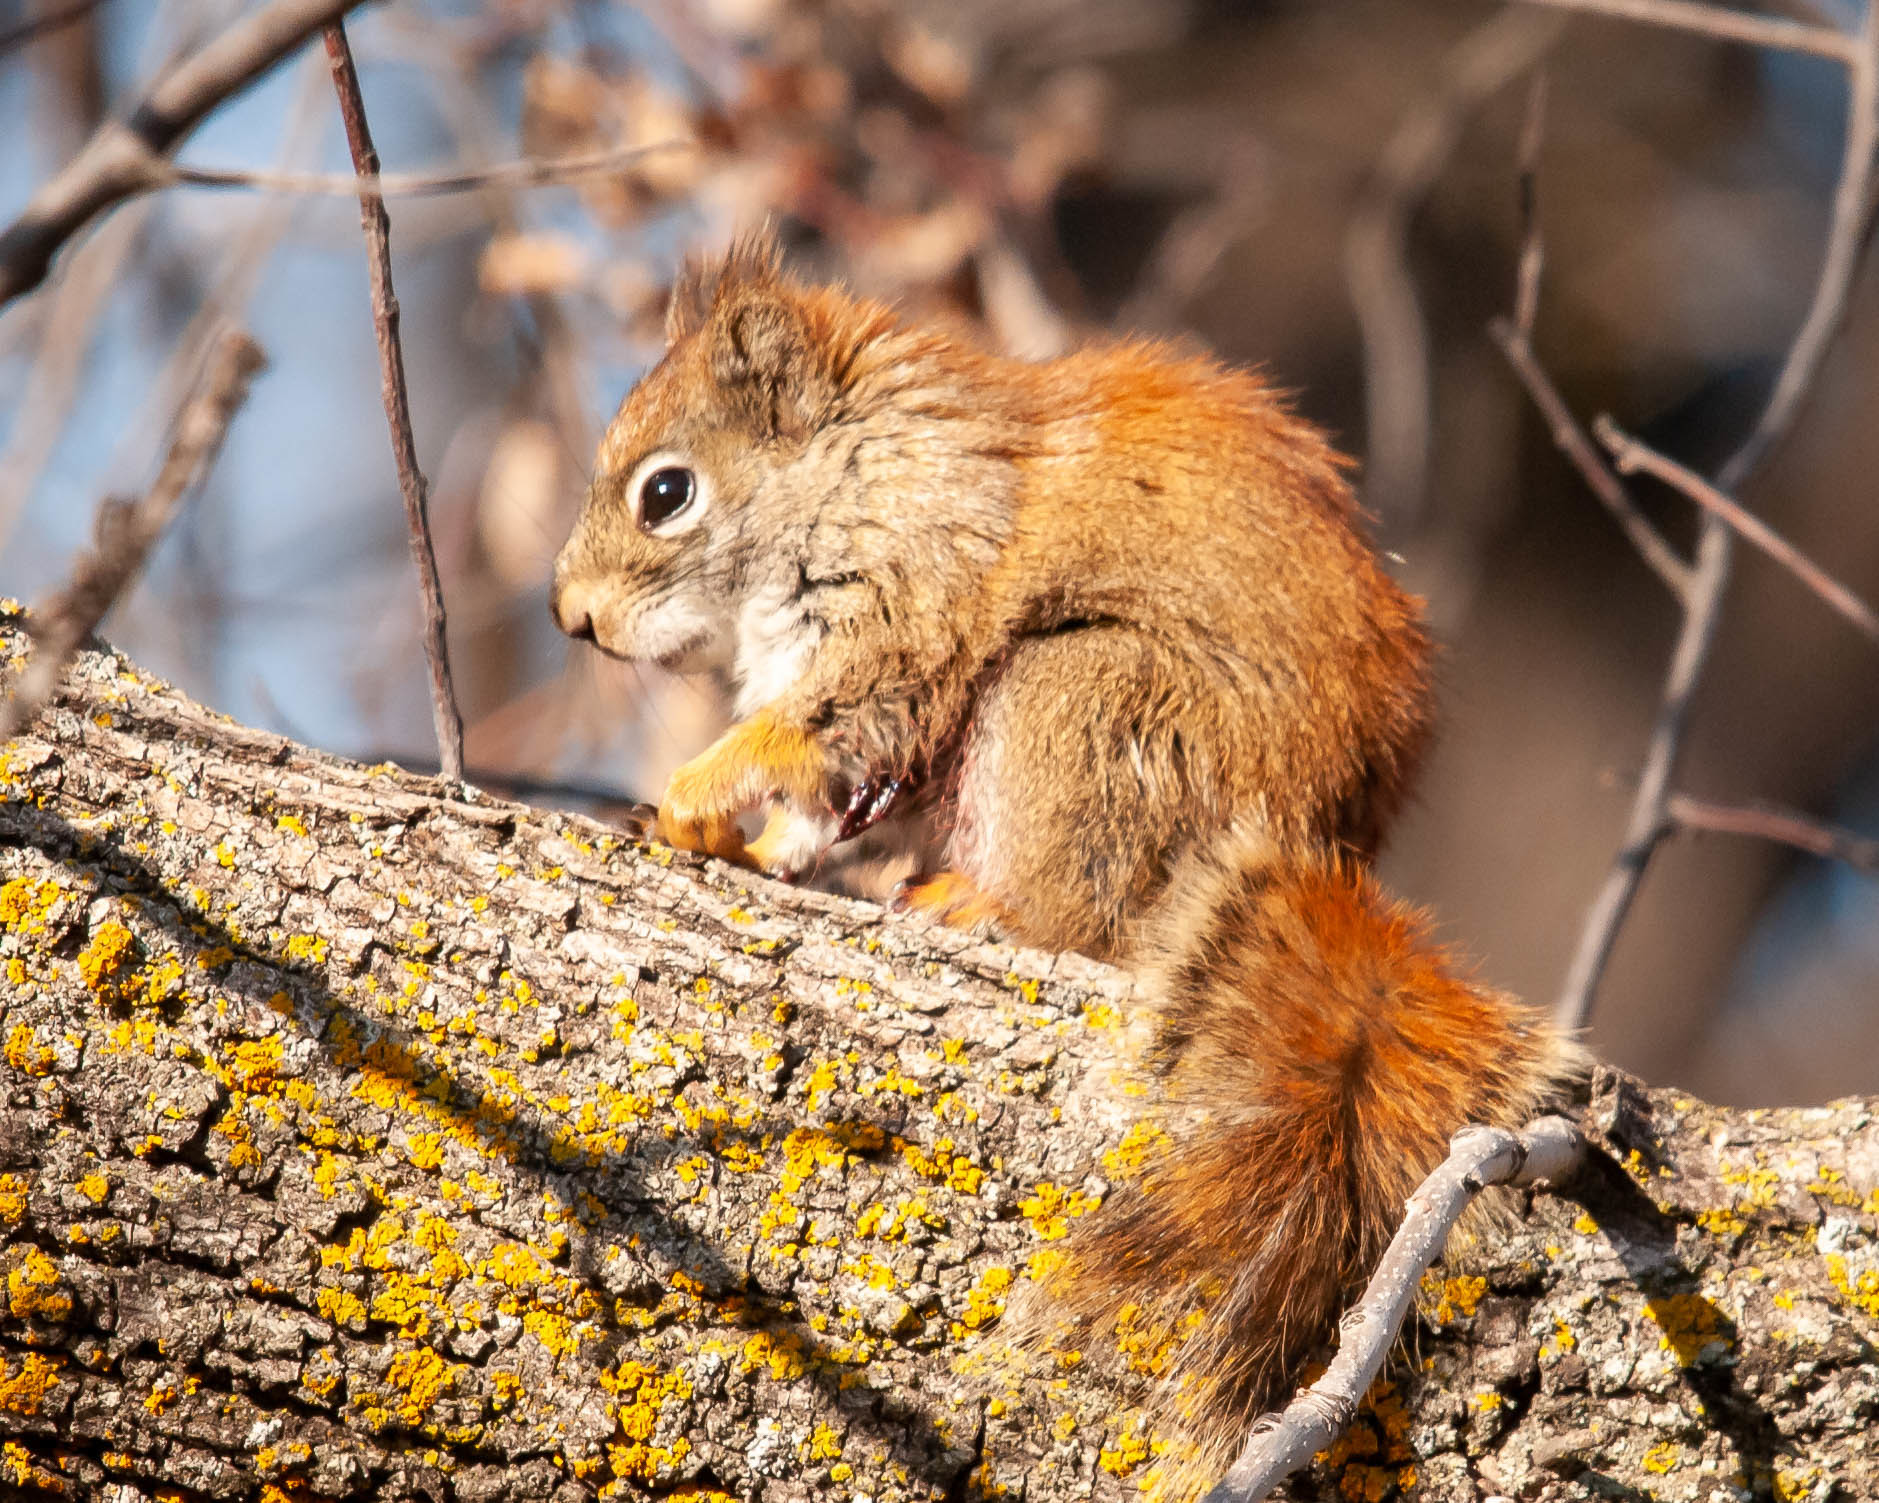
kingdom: Animalia
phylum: Chordata
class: Mammalia
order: Rodentia
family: Sciuridae
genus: Tamiasciurus
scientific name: Tamiasciurus hudsonicus
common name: Red squirrel
